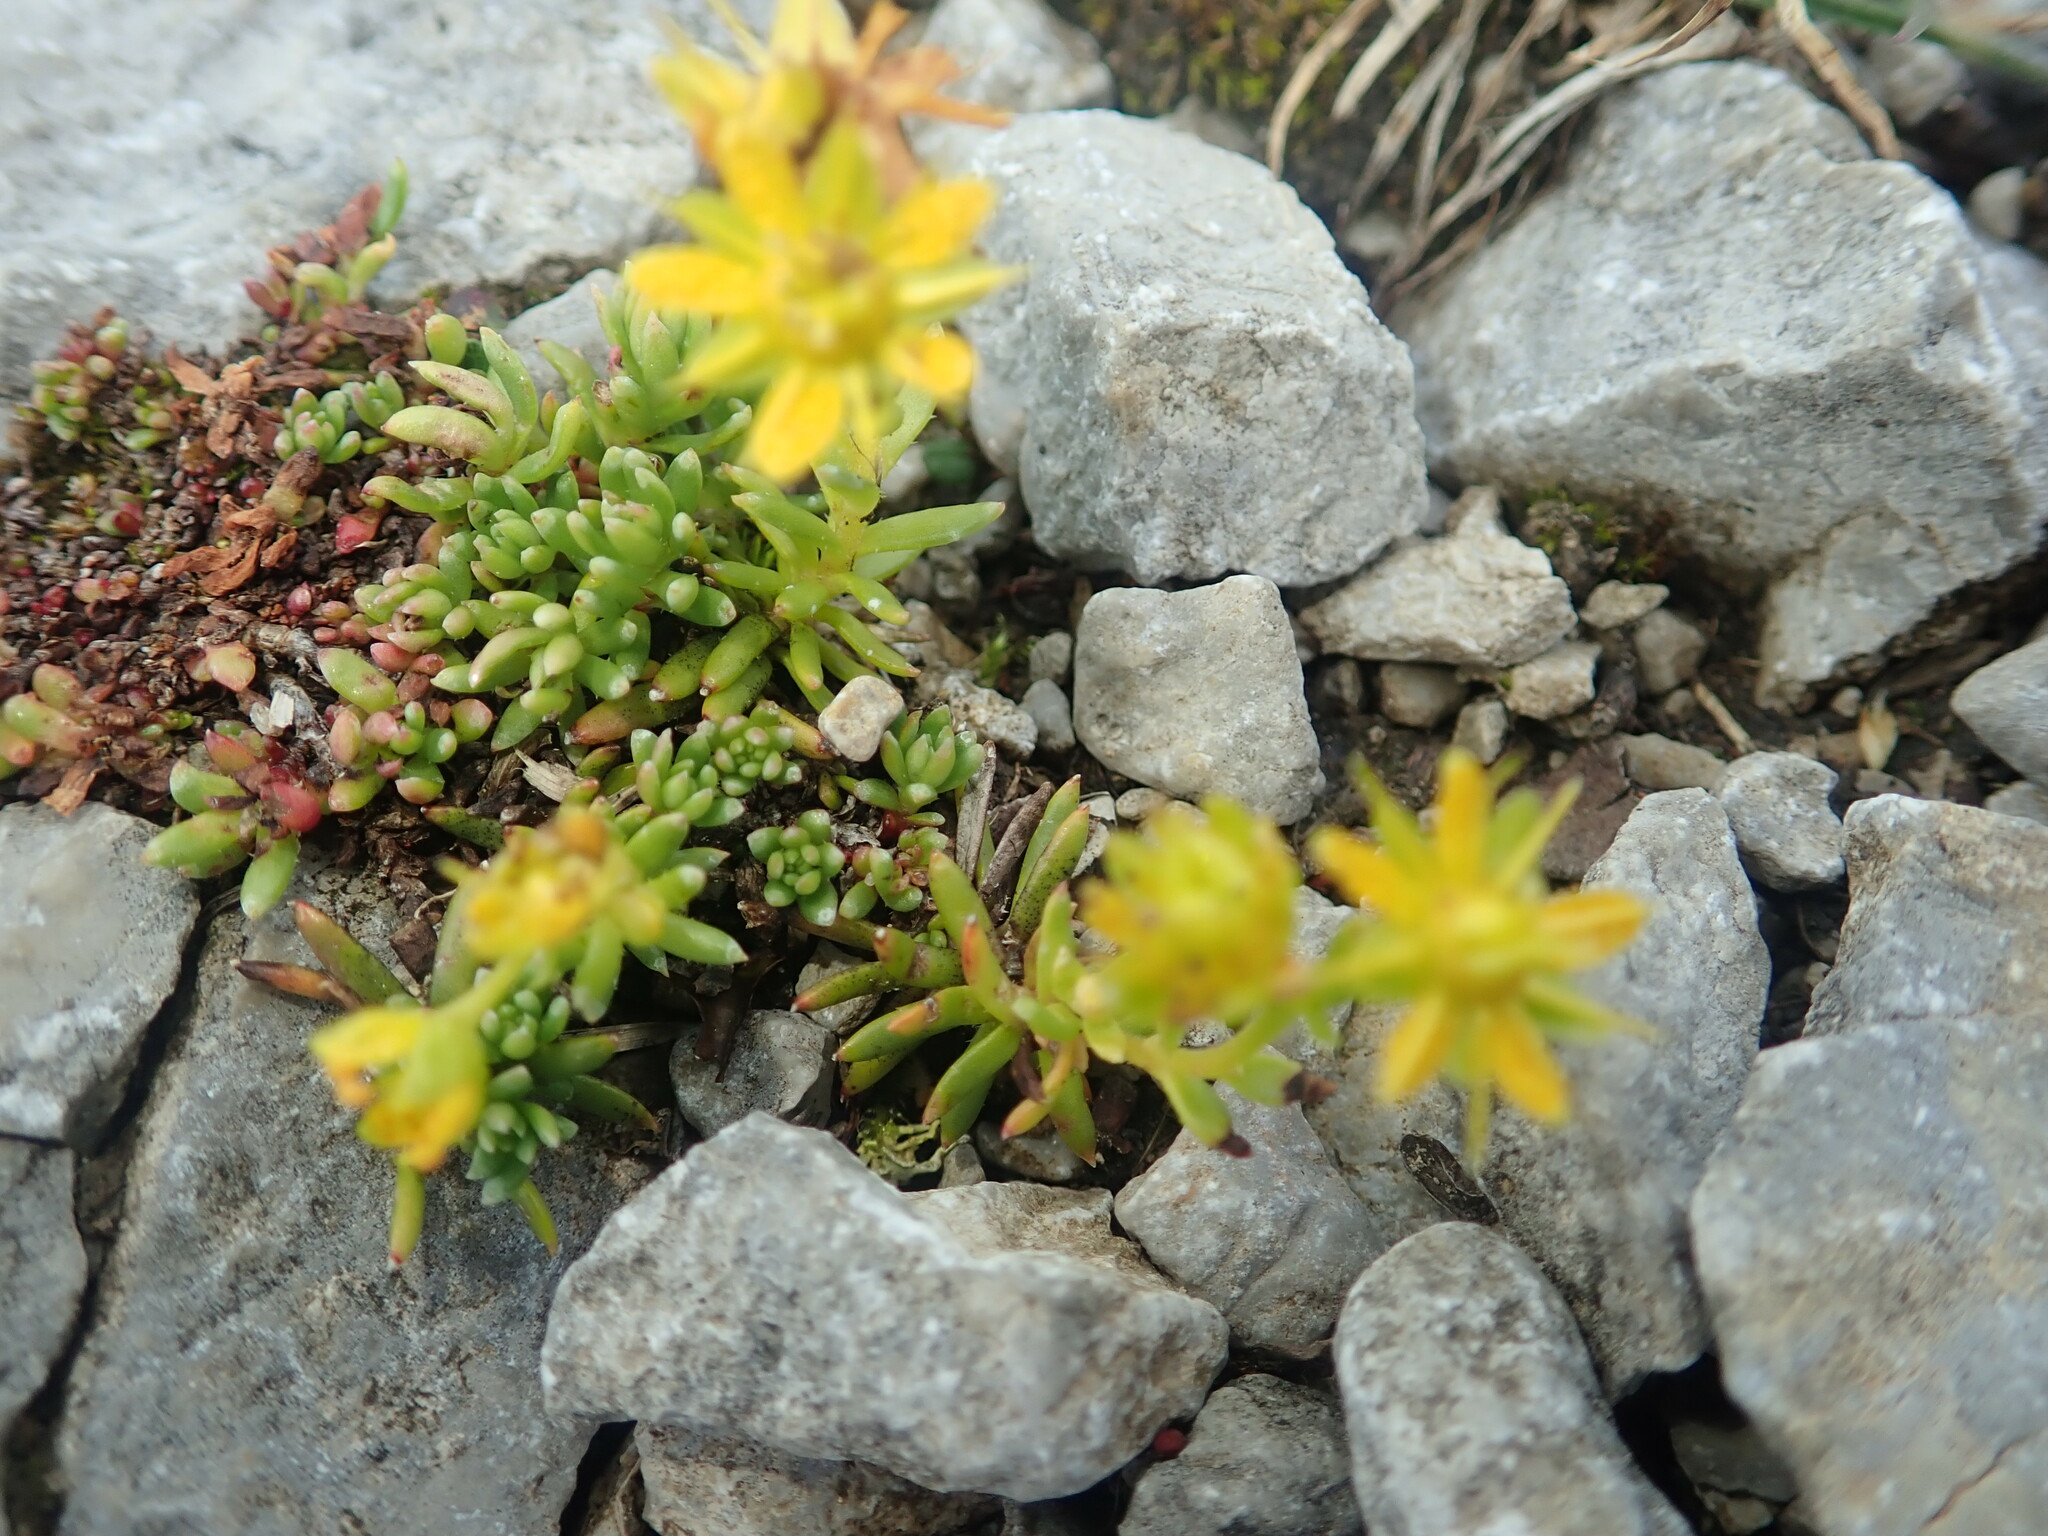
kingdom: Plantae
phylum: Tracheophyta
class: Magnoliopsida
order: Saxifragales
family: Saxifragaceae
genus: Saxifraga
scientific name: Saxifraga aizoides
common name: Yellow mountain saxifrage
